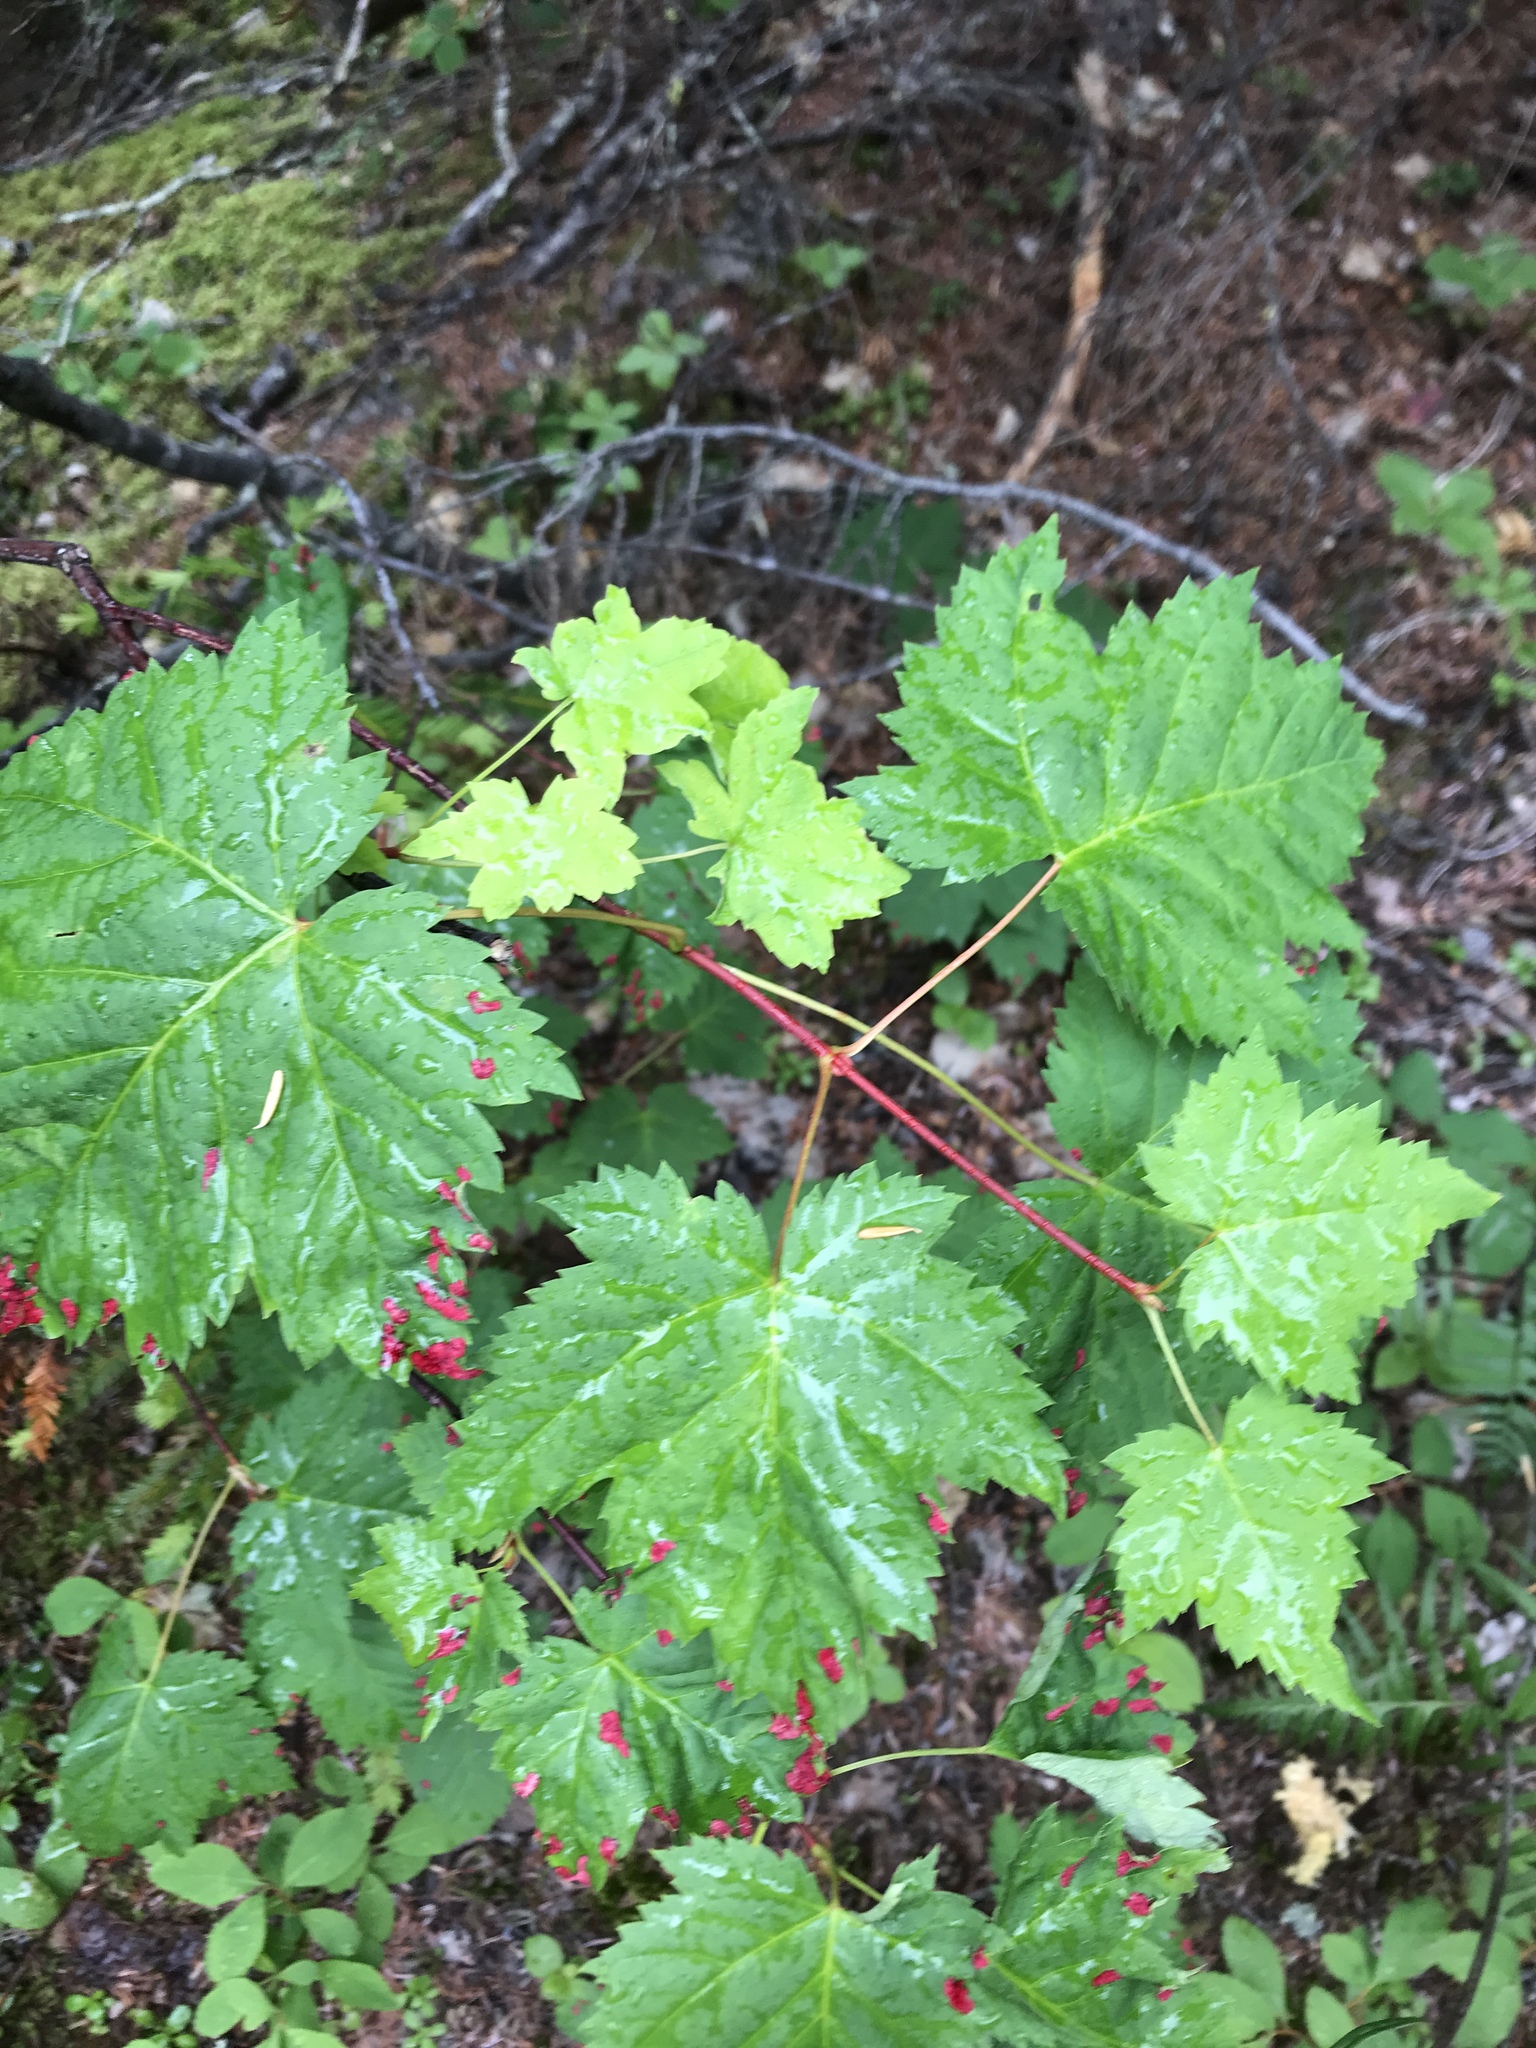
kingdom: Plantae
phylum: Tracheophyta
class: Magnoliopsida
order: Sapindales
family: Sapindaceae
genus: Acer
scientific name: Acer glabrum
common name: Rocky mountain maple
